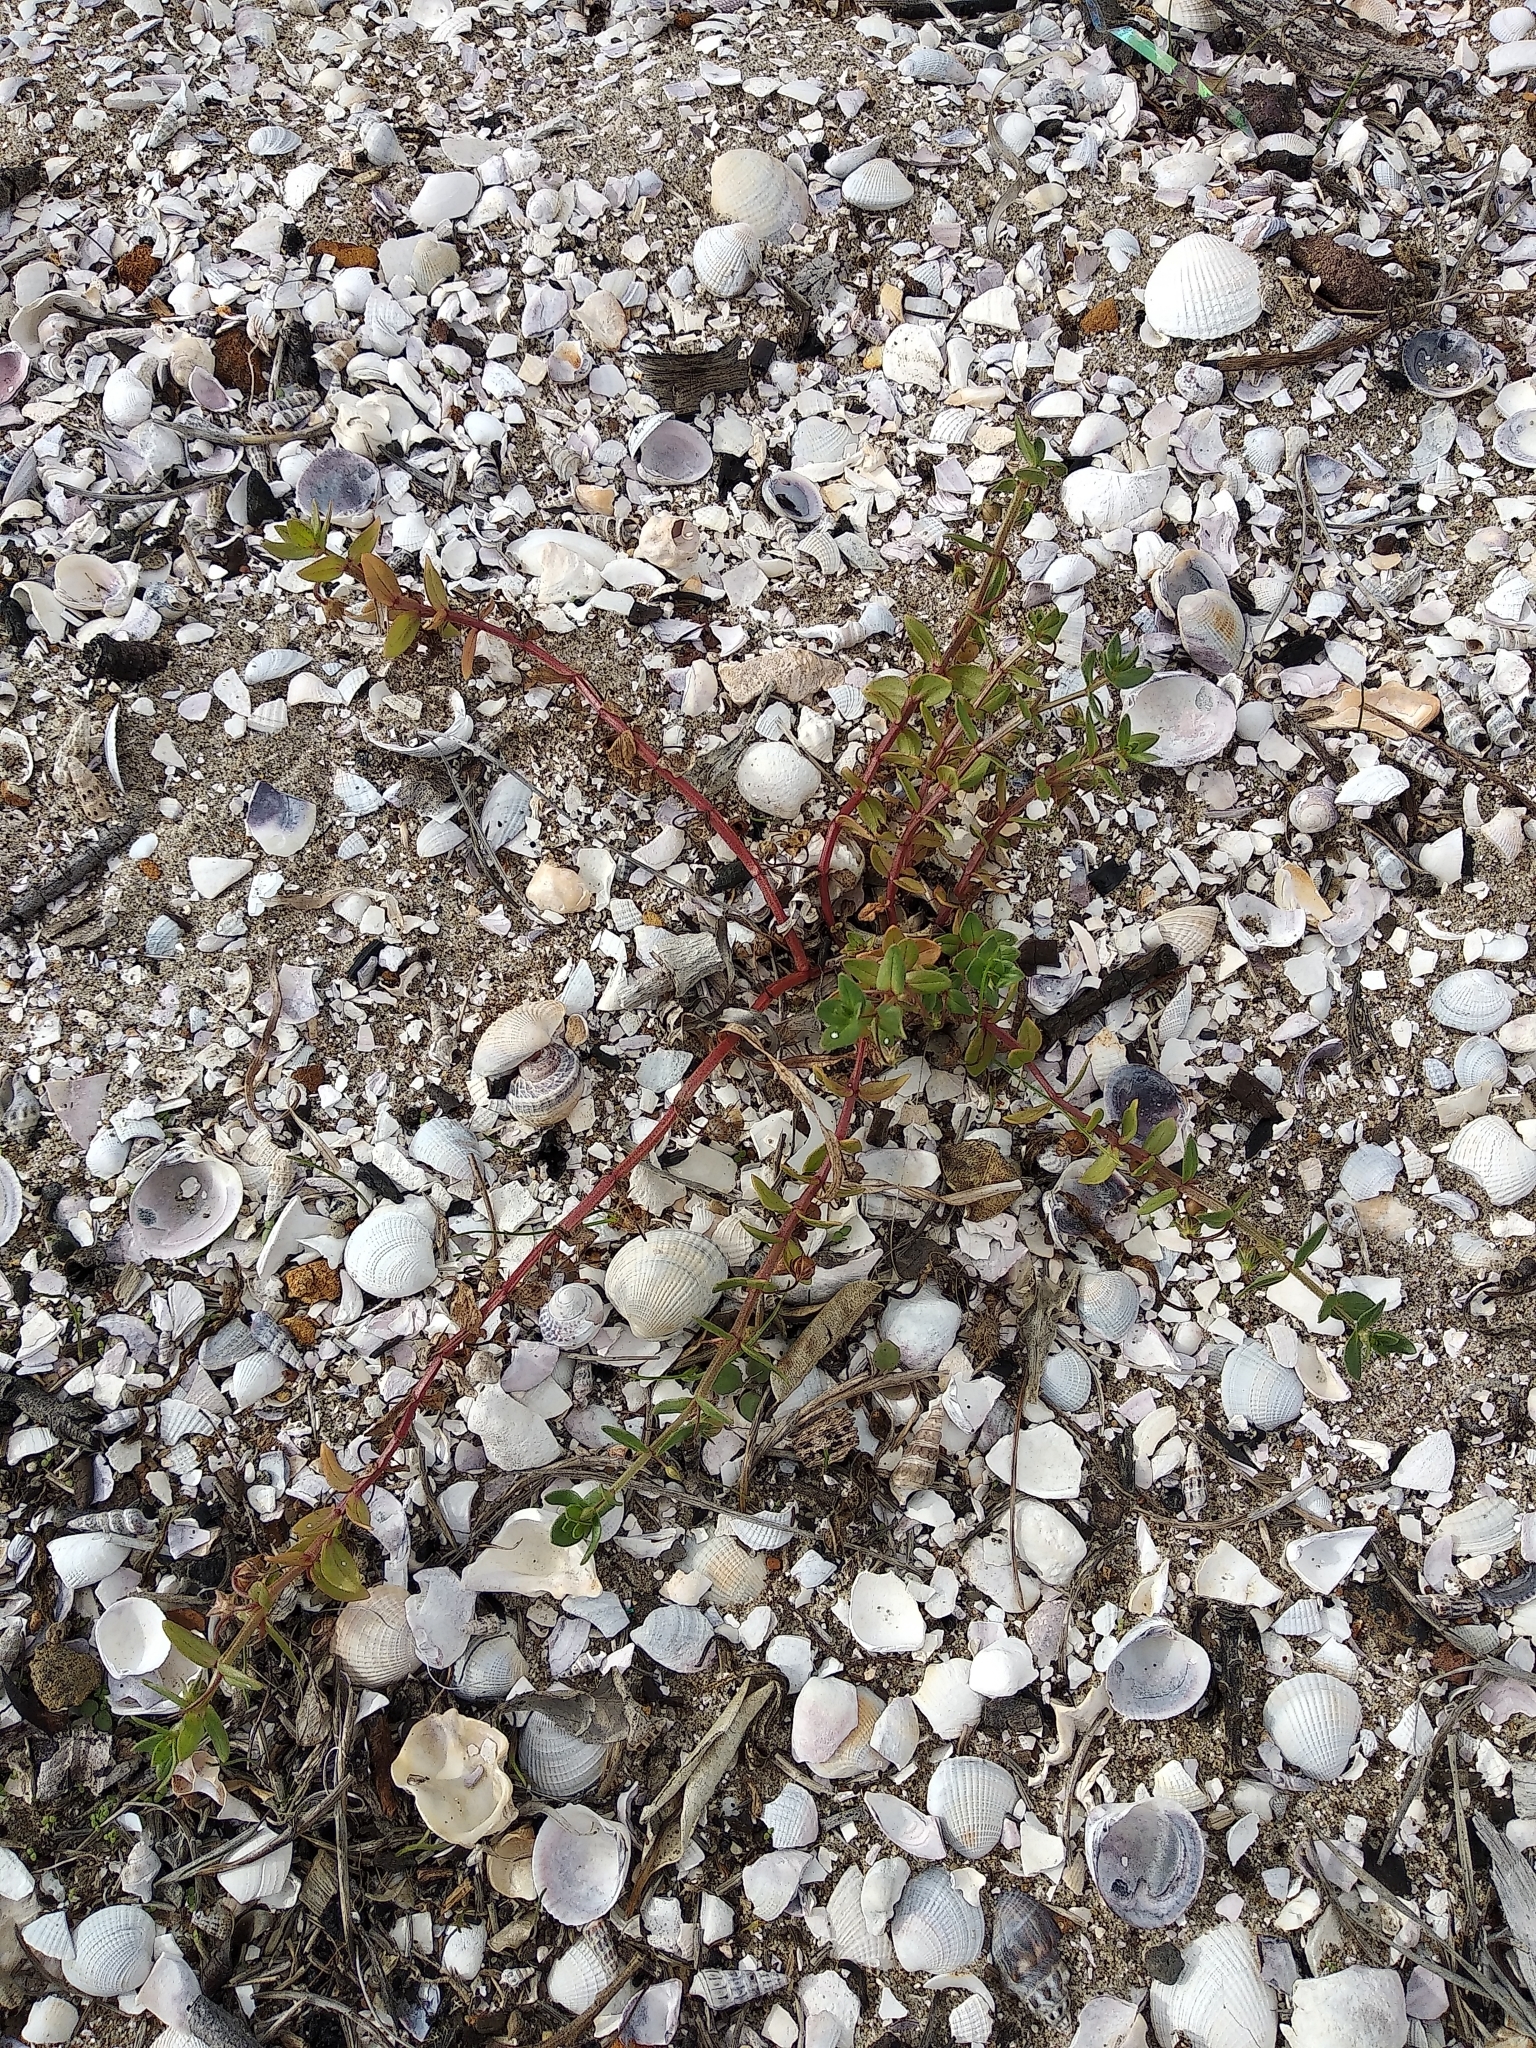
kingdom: Plantae
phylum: Tracheophyta
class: Magnoliopsida
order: Ericales
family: Primulaceae
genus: Lysimachia
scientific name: Lysimachia arvensis
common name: Scarlet pimpernel
